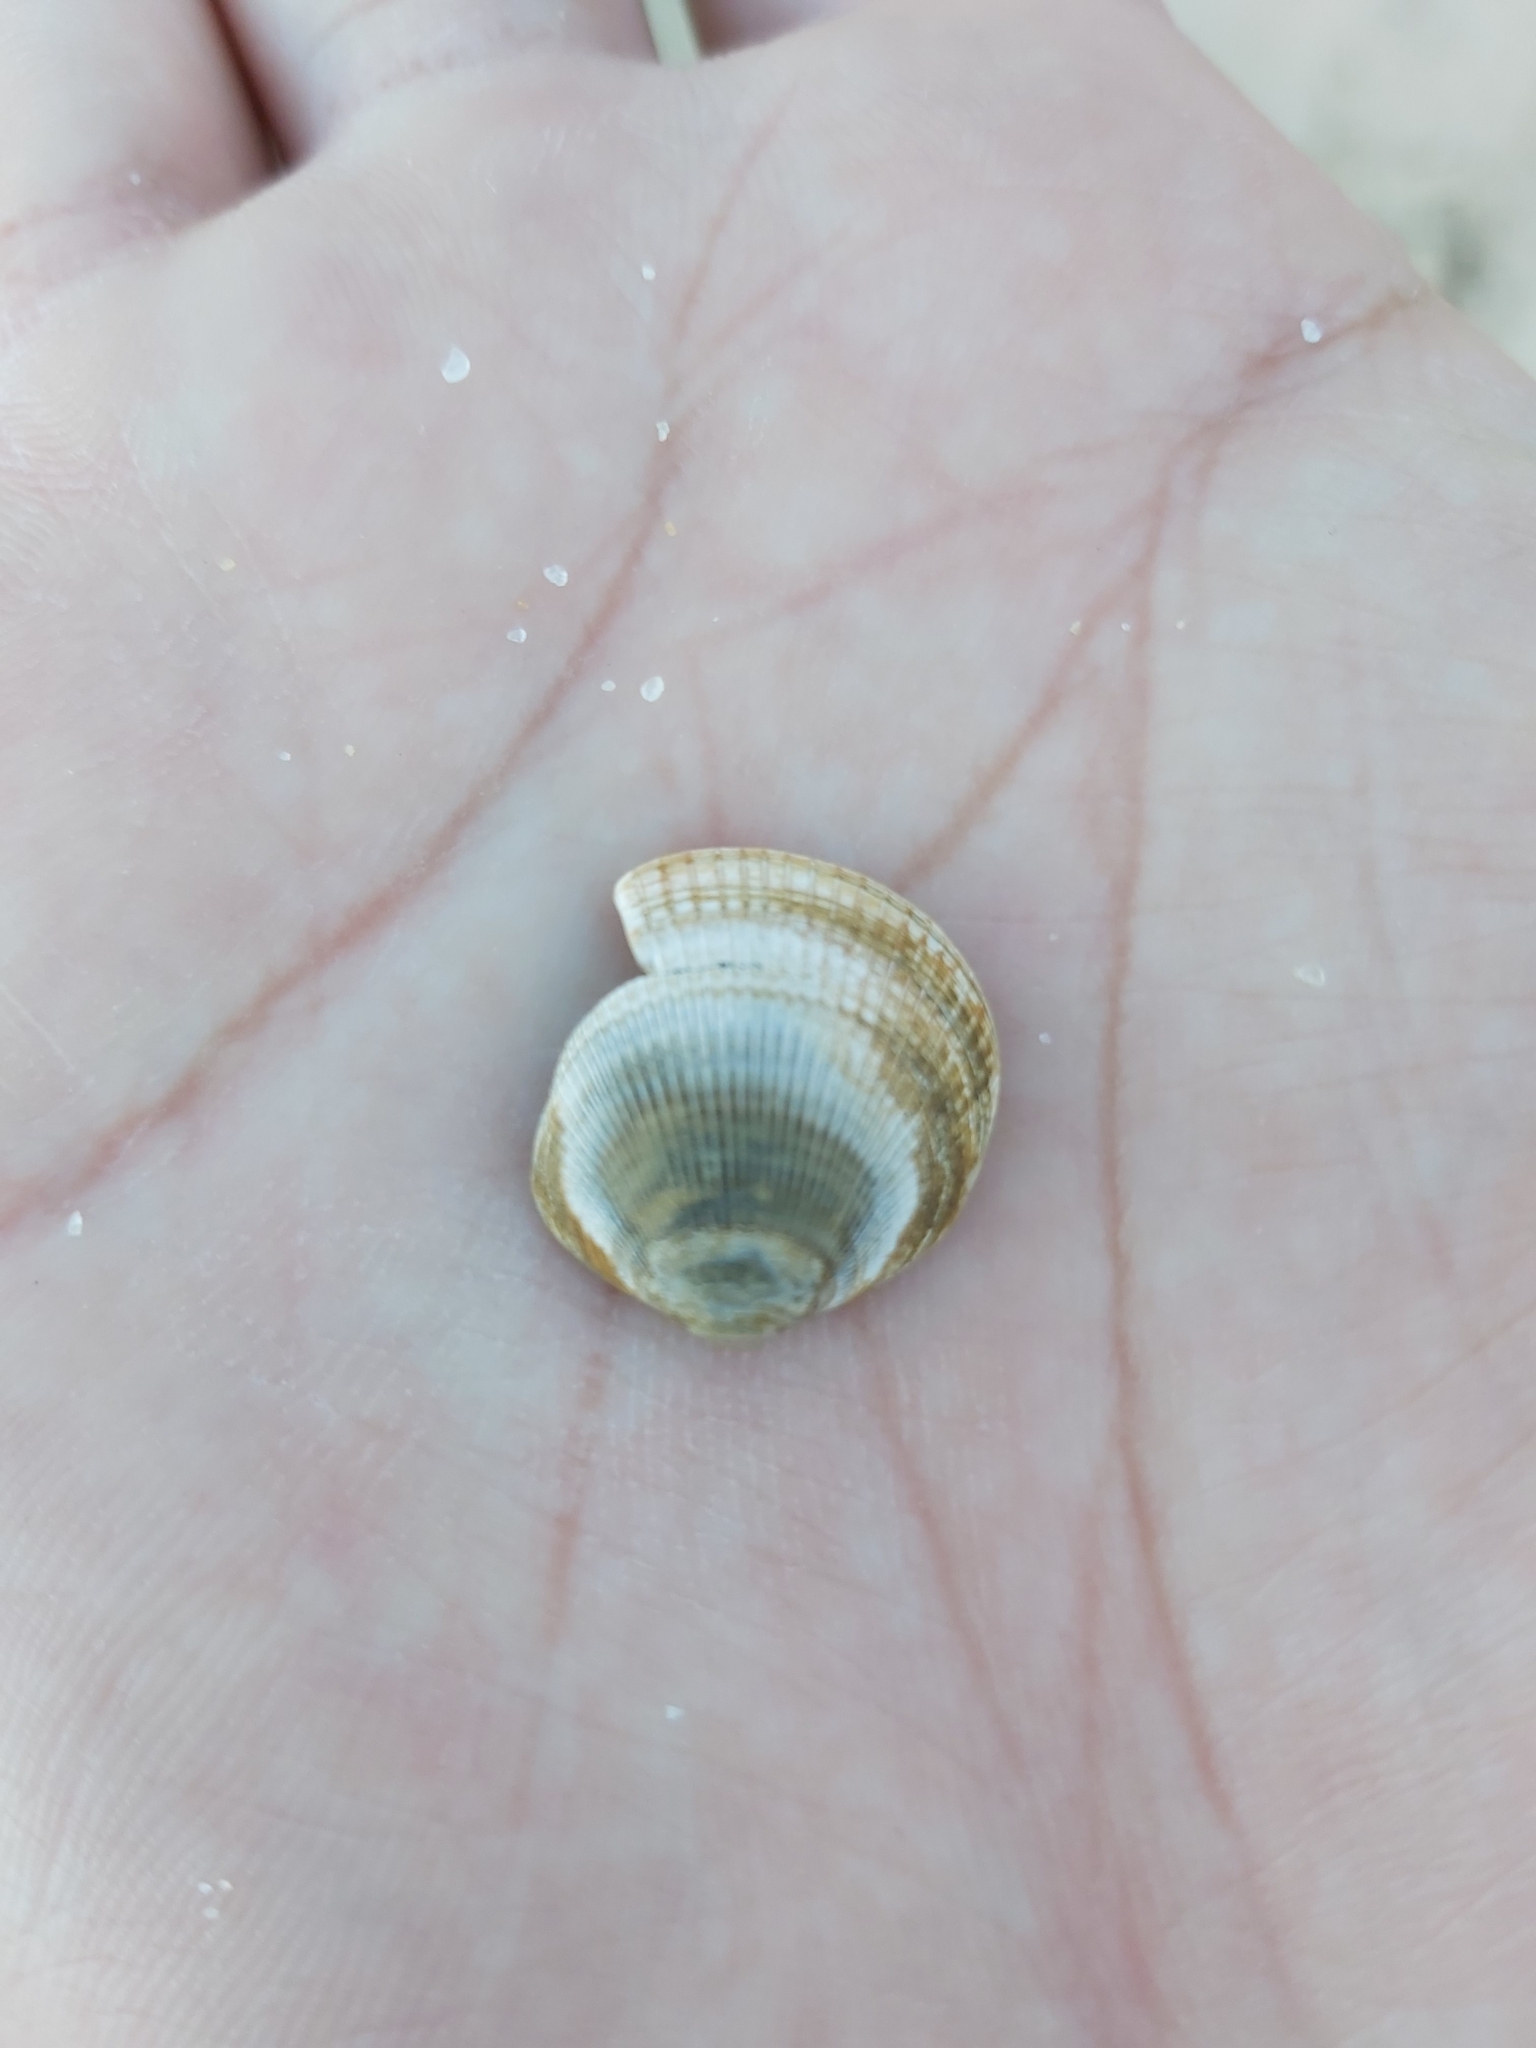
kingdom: Animalia
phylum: Mollusca
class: Bivalvia
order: Arcida
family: Glycymerididae
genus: Glycymeris
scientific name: Glycymeris grayana
